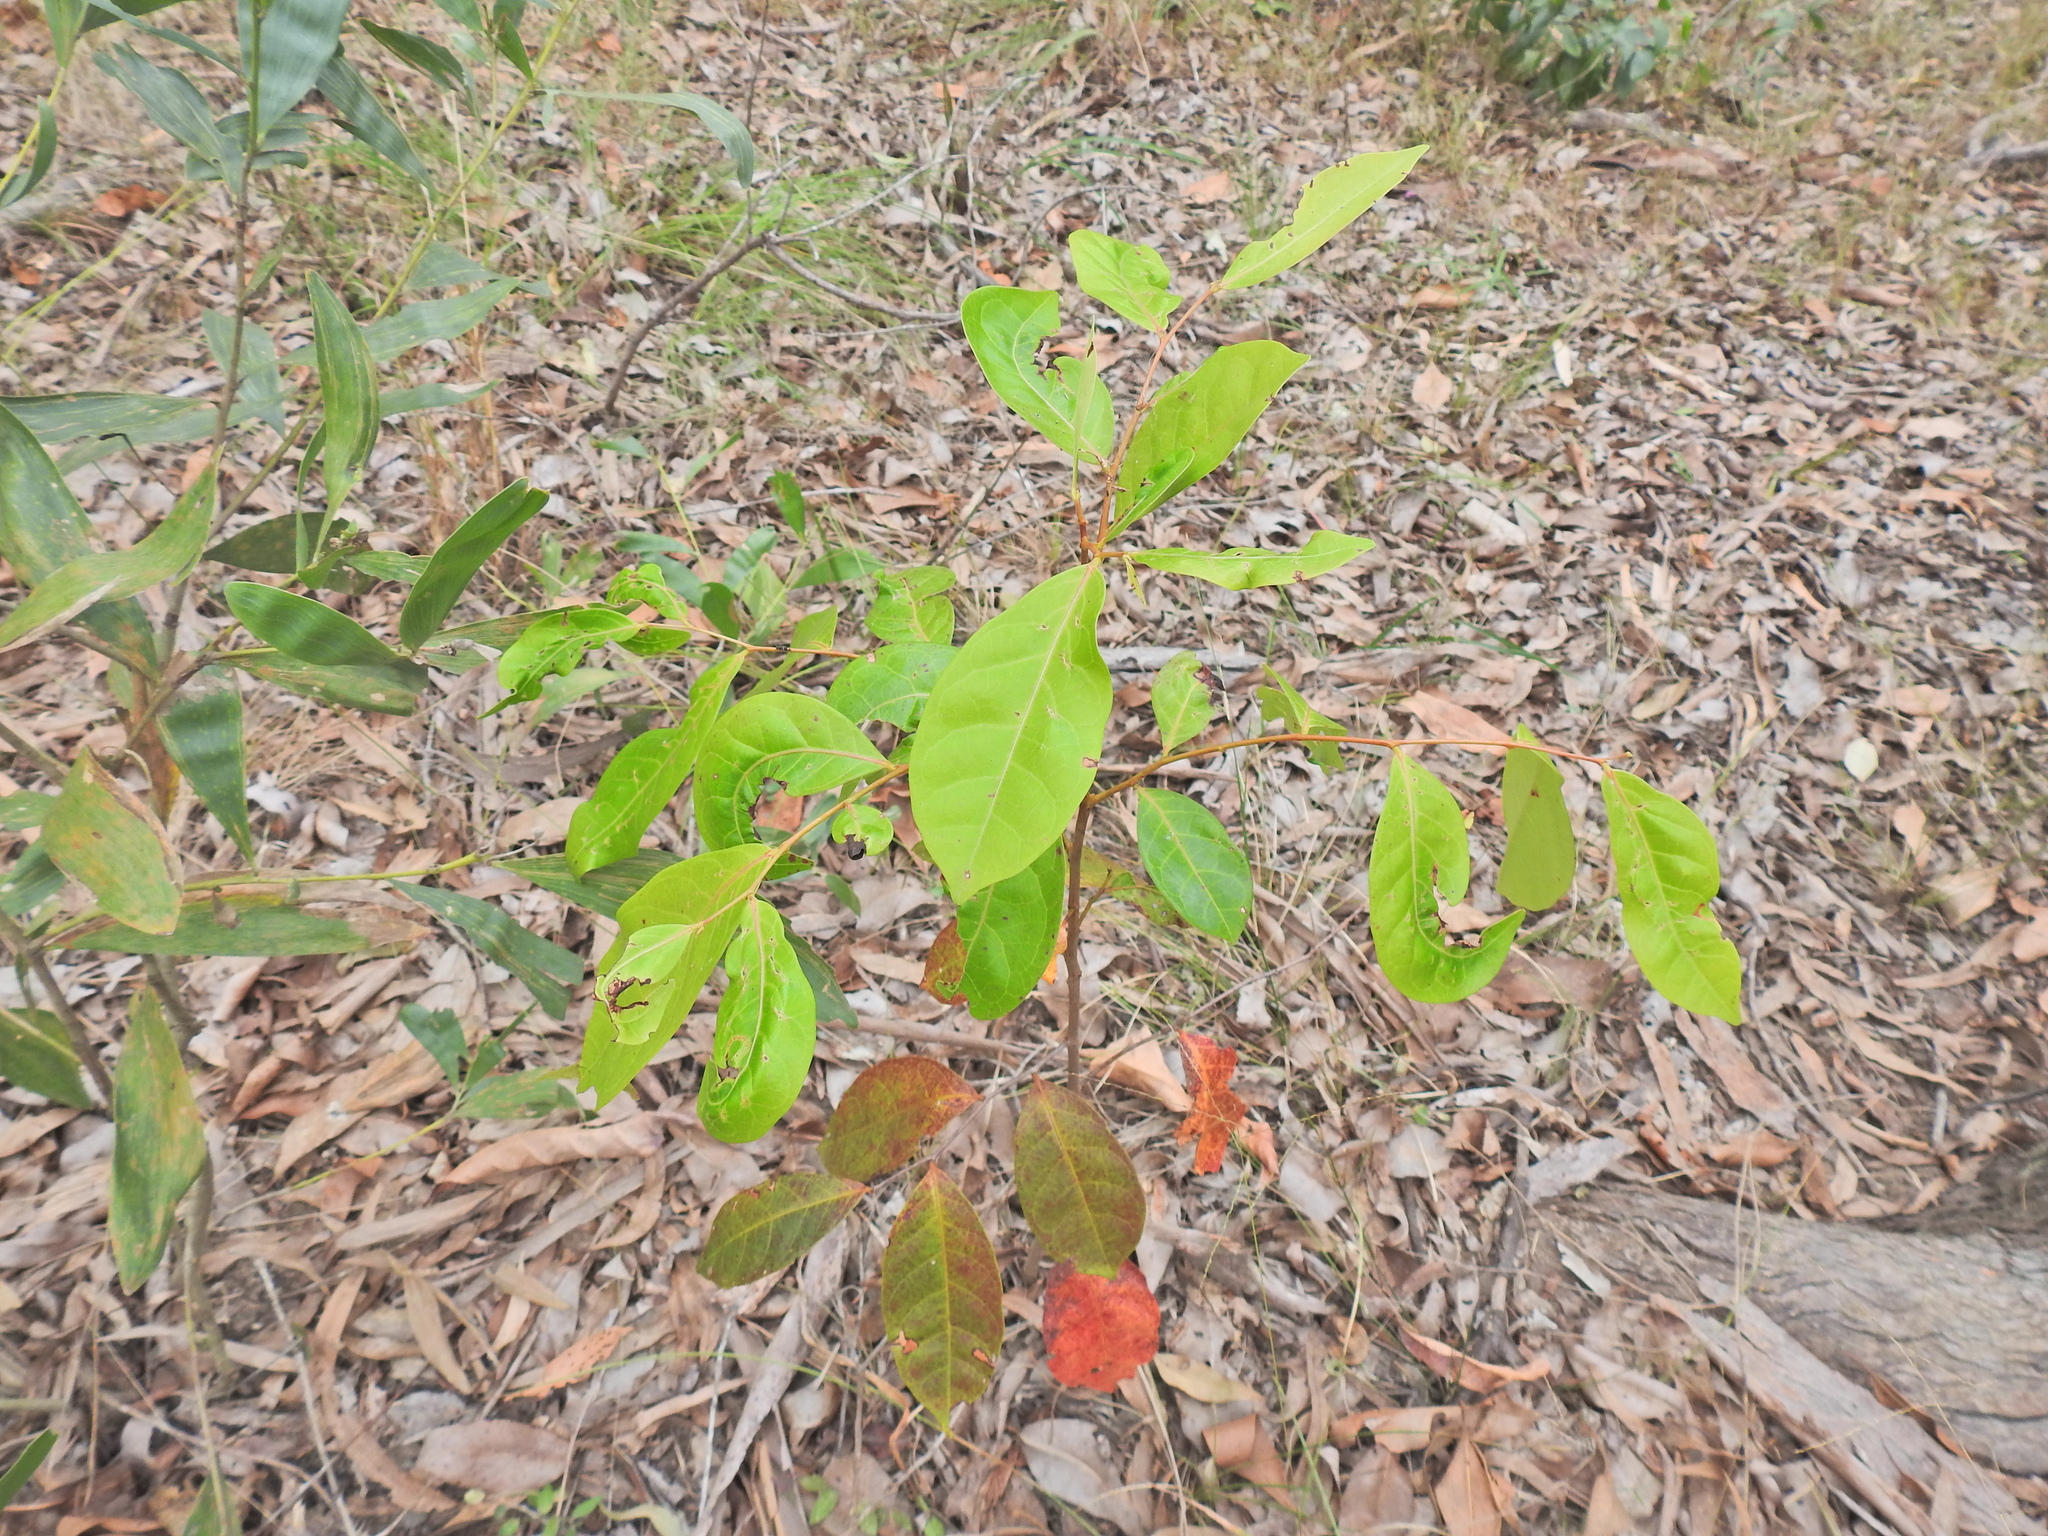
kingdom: Plantae
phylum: Tracheophyta
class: Magnoliopsida
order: Malpighiales
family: Phyllanthaceae
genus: Glochidion
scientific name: Glochidion ferdinandi
